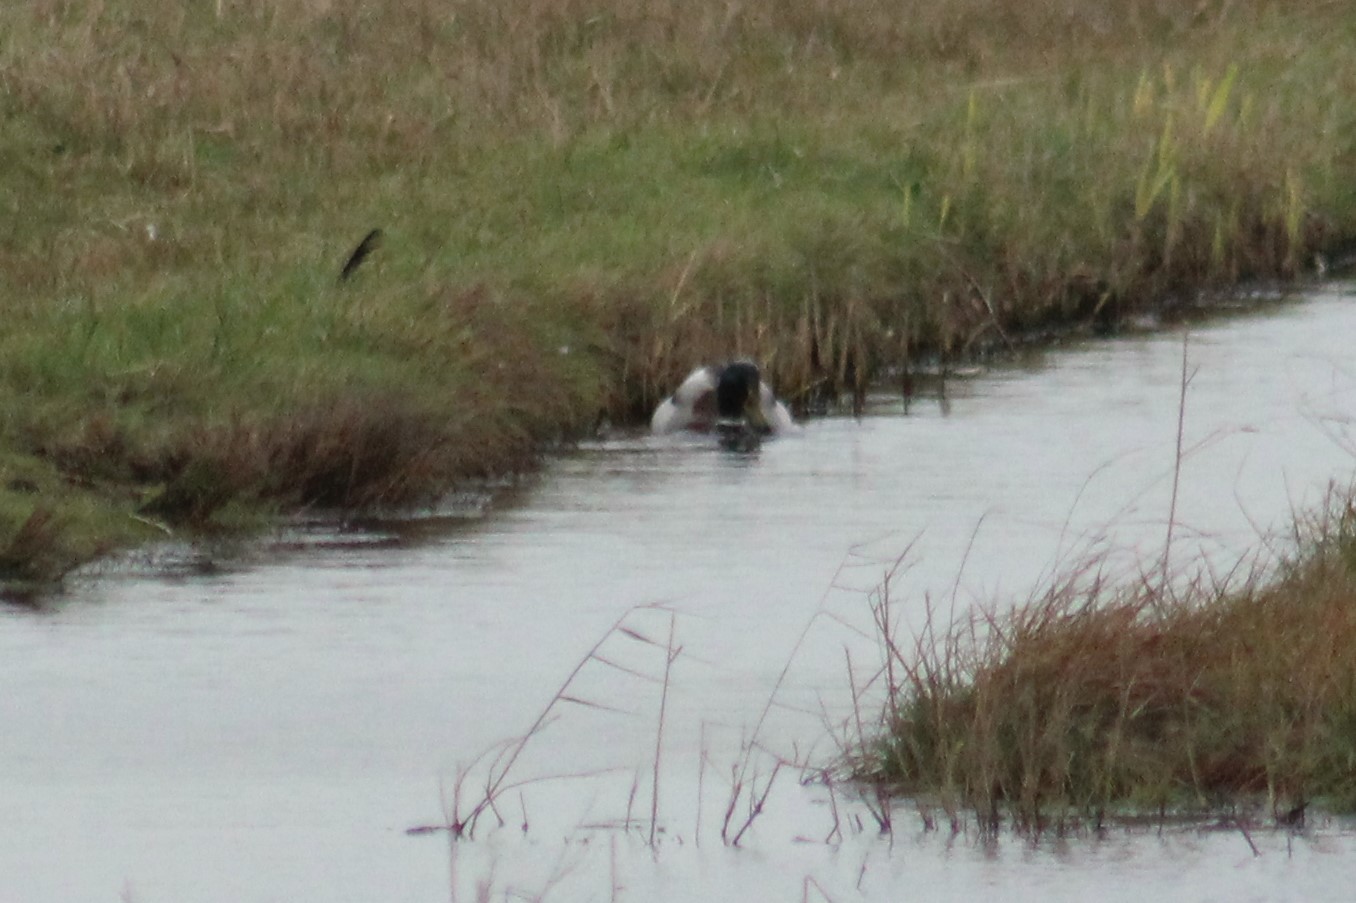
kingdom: Animalia
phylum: Chordata
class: Aves
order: Anseriformes
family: Anatidae
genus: Anas
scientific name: Anas platyrhynchos
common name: Mallard
